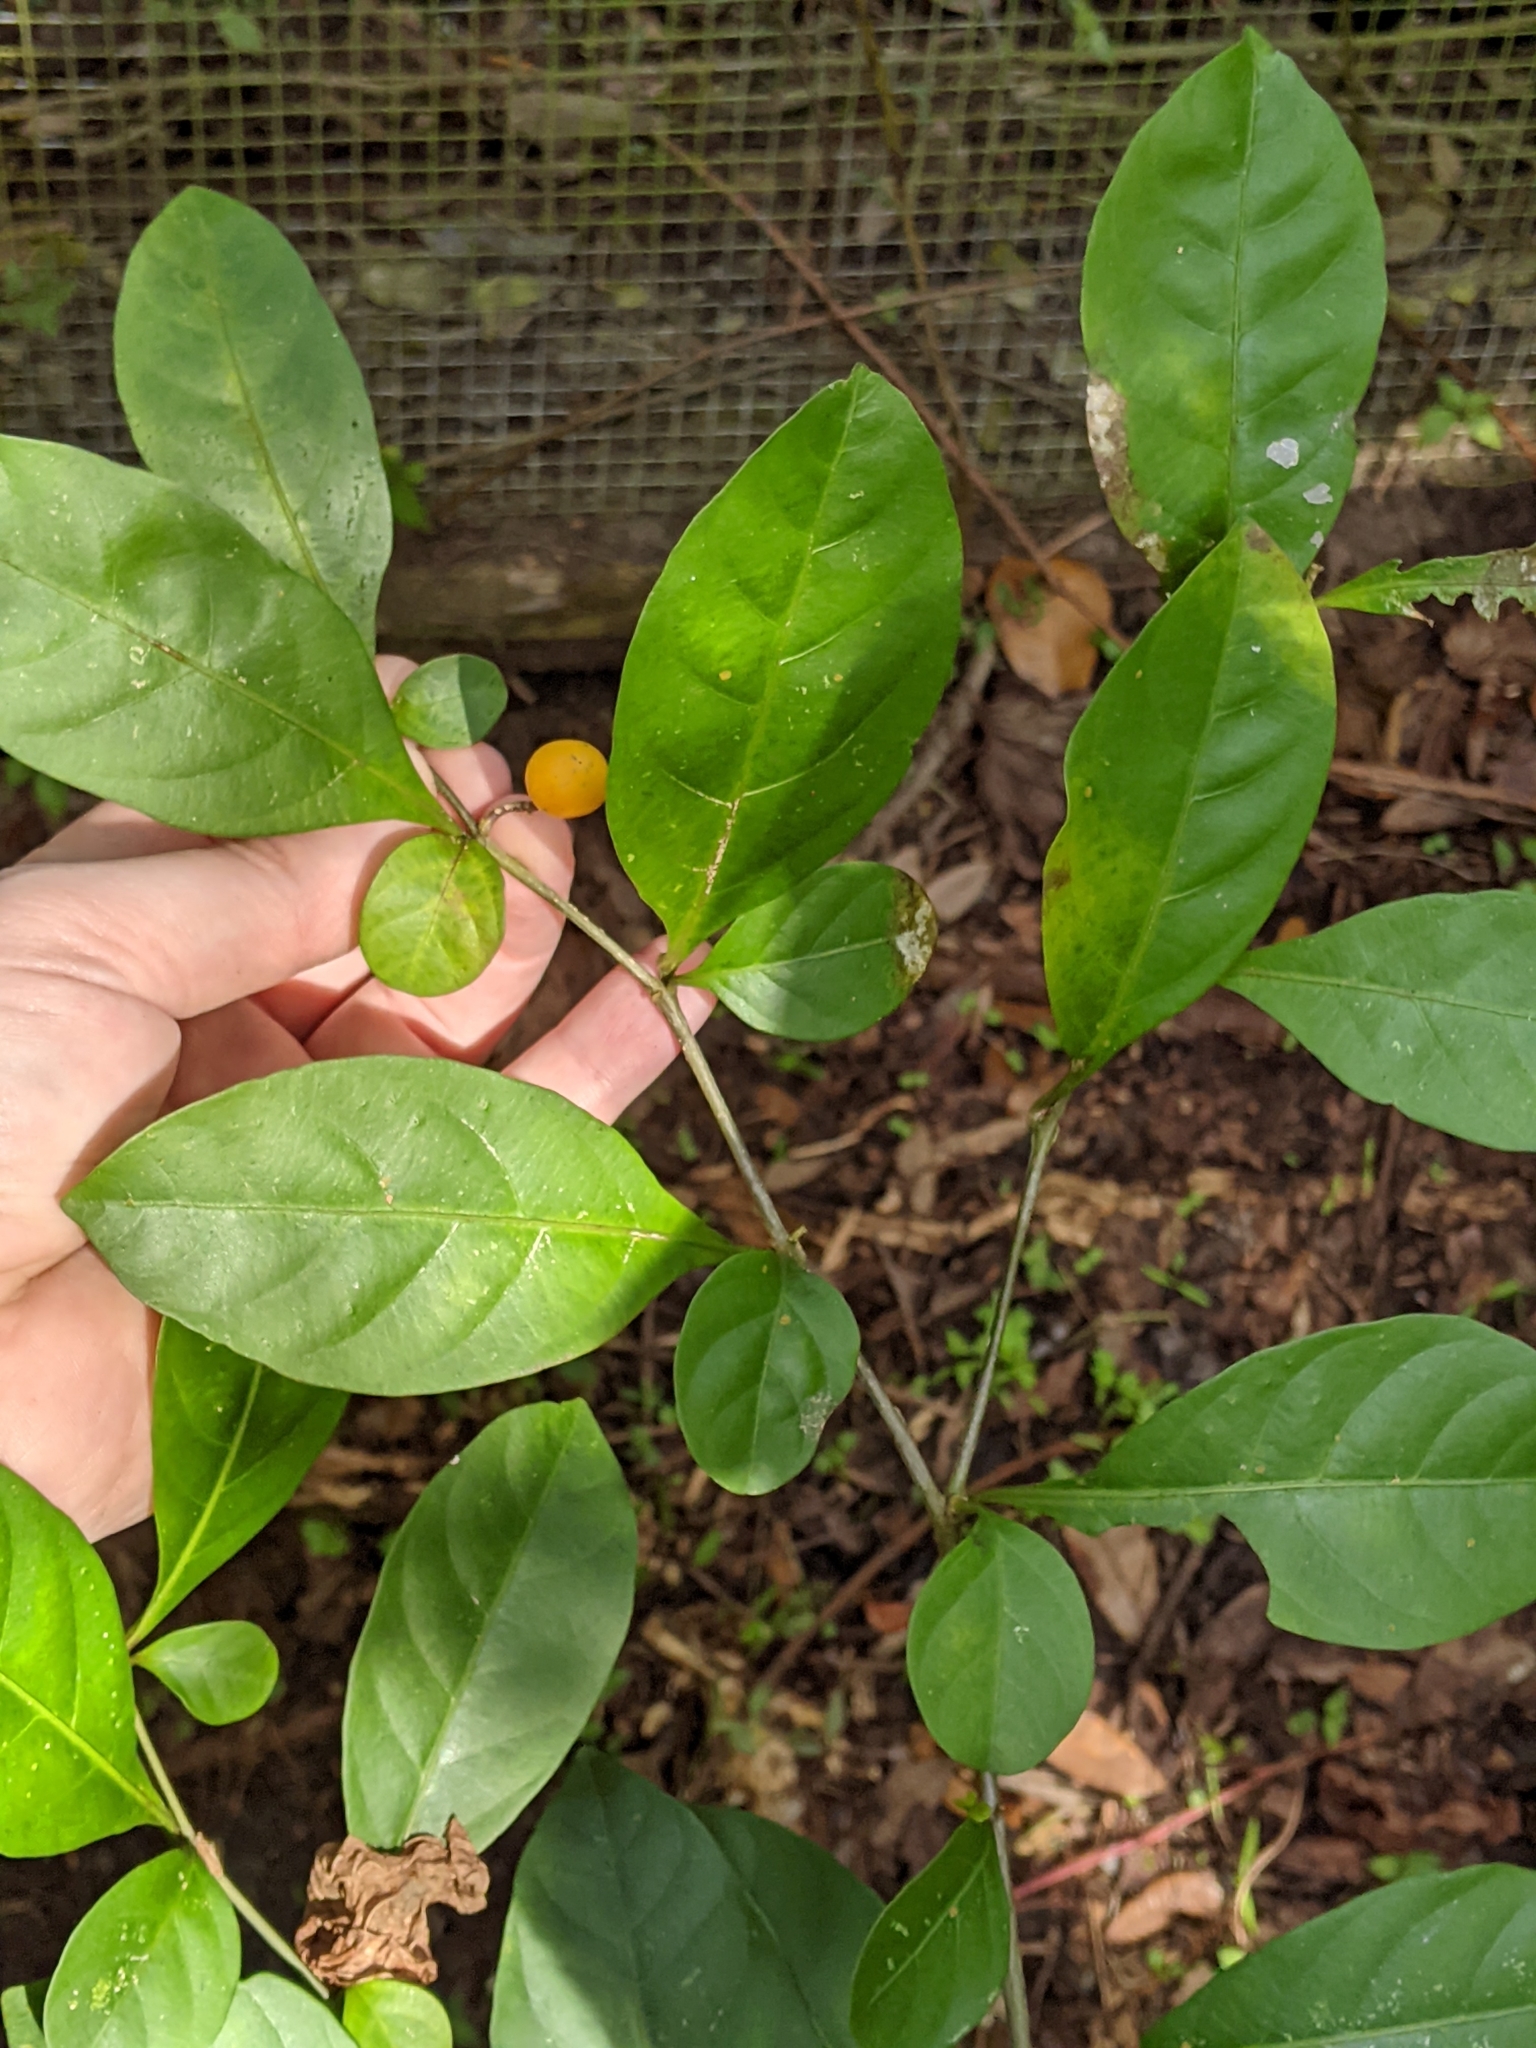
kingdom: Plantae
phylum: Tracheophyta
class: Magnoliopsida
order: Solanales
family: Solanaceae
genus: Solanum
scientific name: Solanum diphyllum
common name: Twoleaf nightshade
